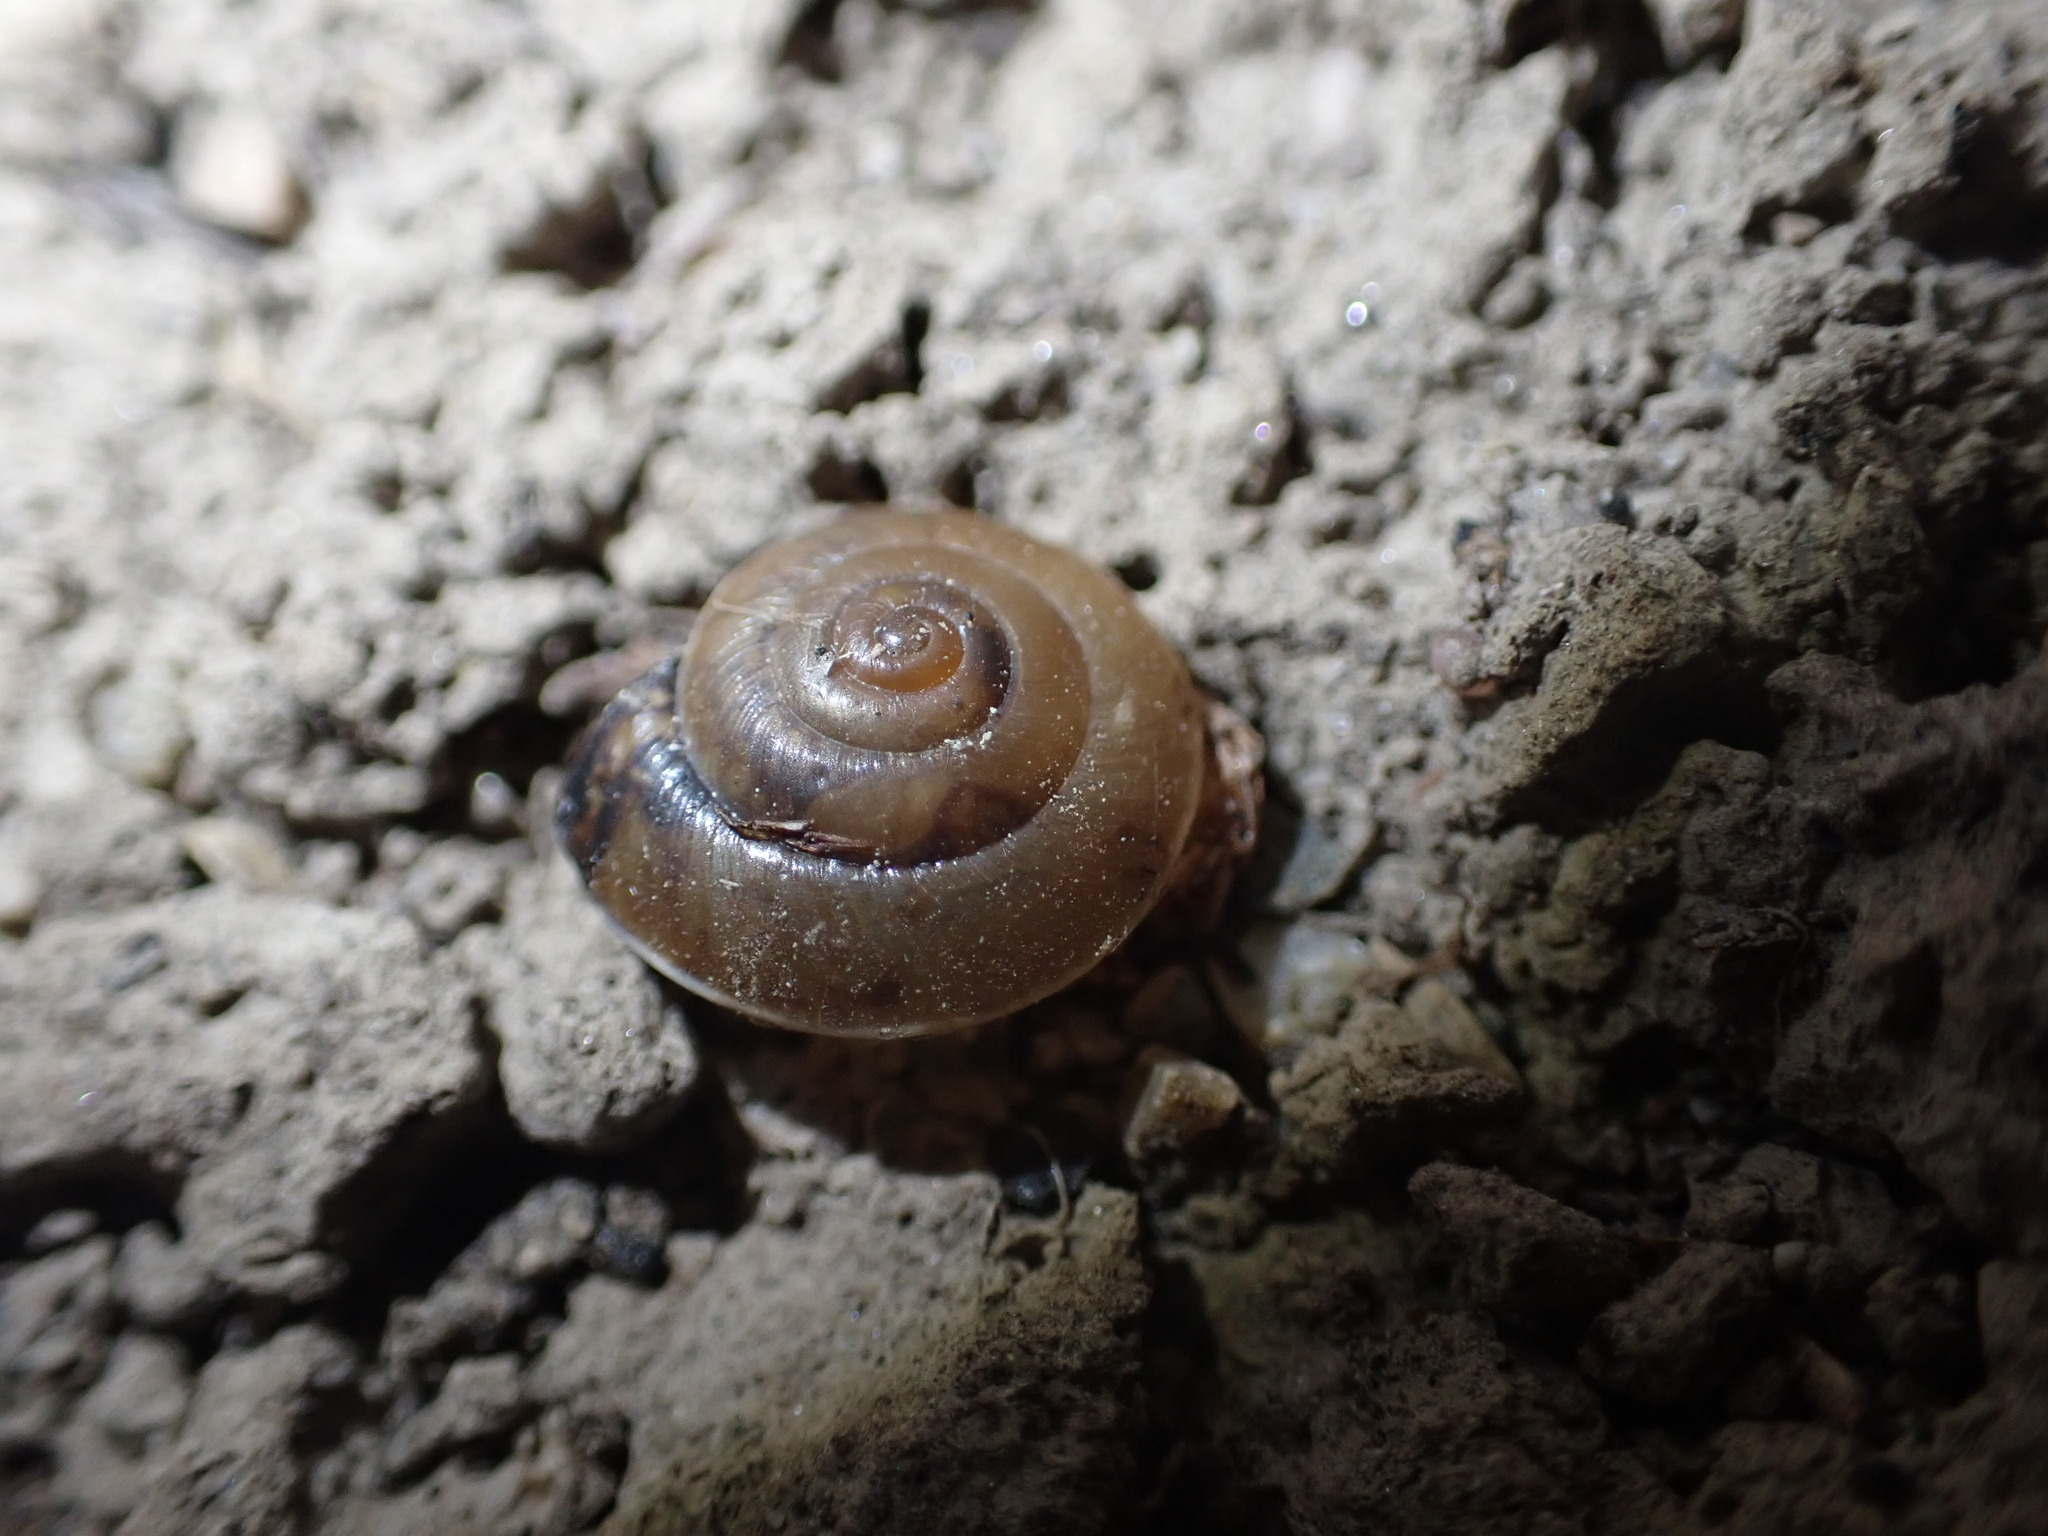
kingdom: Animalia
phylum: Mollusca
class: Gastropoda
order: Stylommatophora
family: Hygromiidae
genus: Hygromia
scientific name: Hygromia cinctella
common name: Girdled snail
